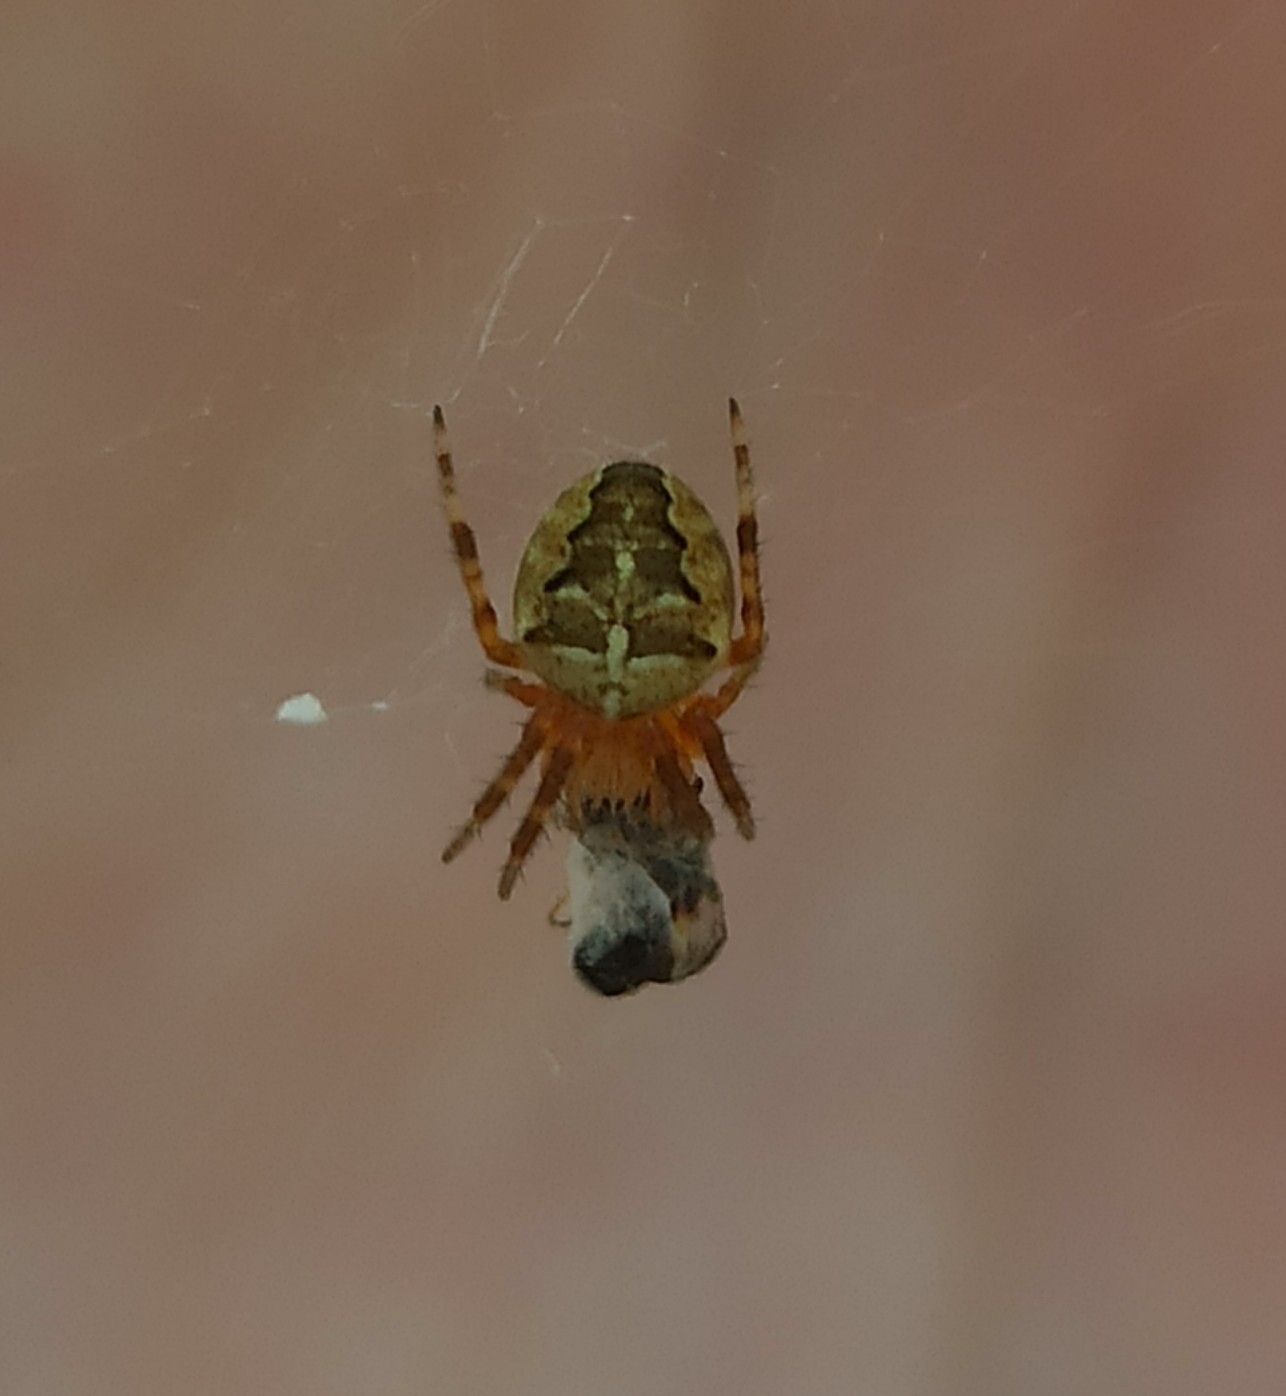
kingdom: Animalia
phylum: Arthropoda
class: Arachnida
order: Araneae
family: Araneidae
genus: Araneus
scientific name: Araneus diadematus
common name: Cross orbweaver
